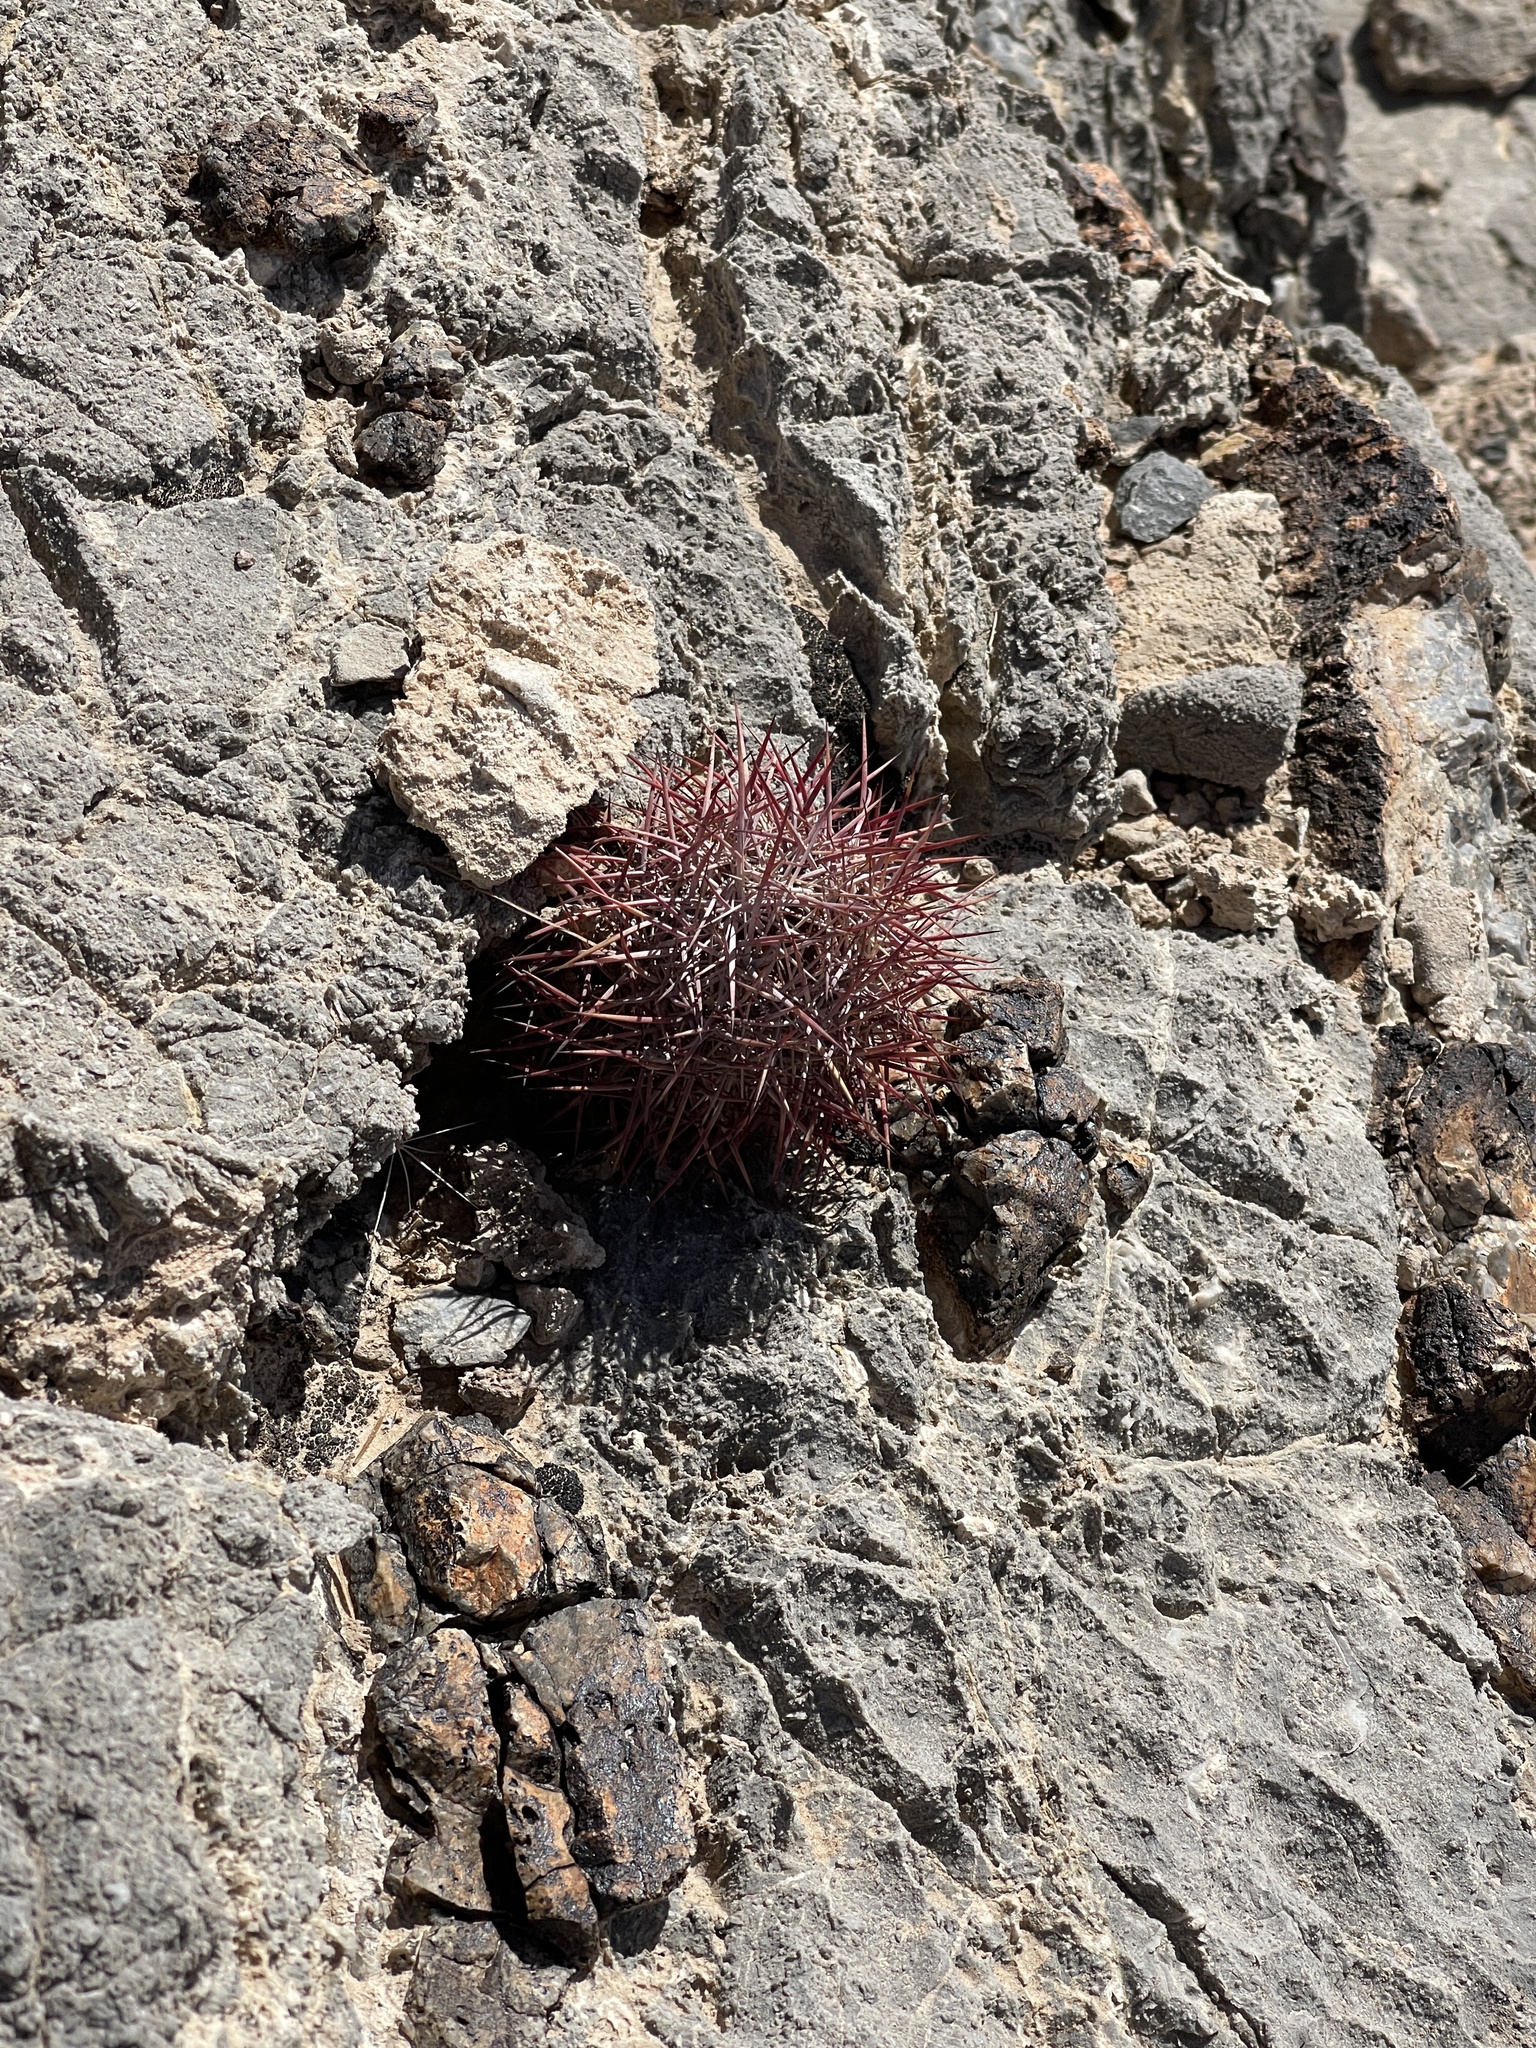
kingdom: Plantae
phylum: Tracheophyta
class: Magnoliopsida
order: Caryophyllales
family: Cactaceae
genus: Sclerocactus
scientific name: Sclerocactus johnsonii
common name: Eight-spine fishhook cactus
